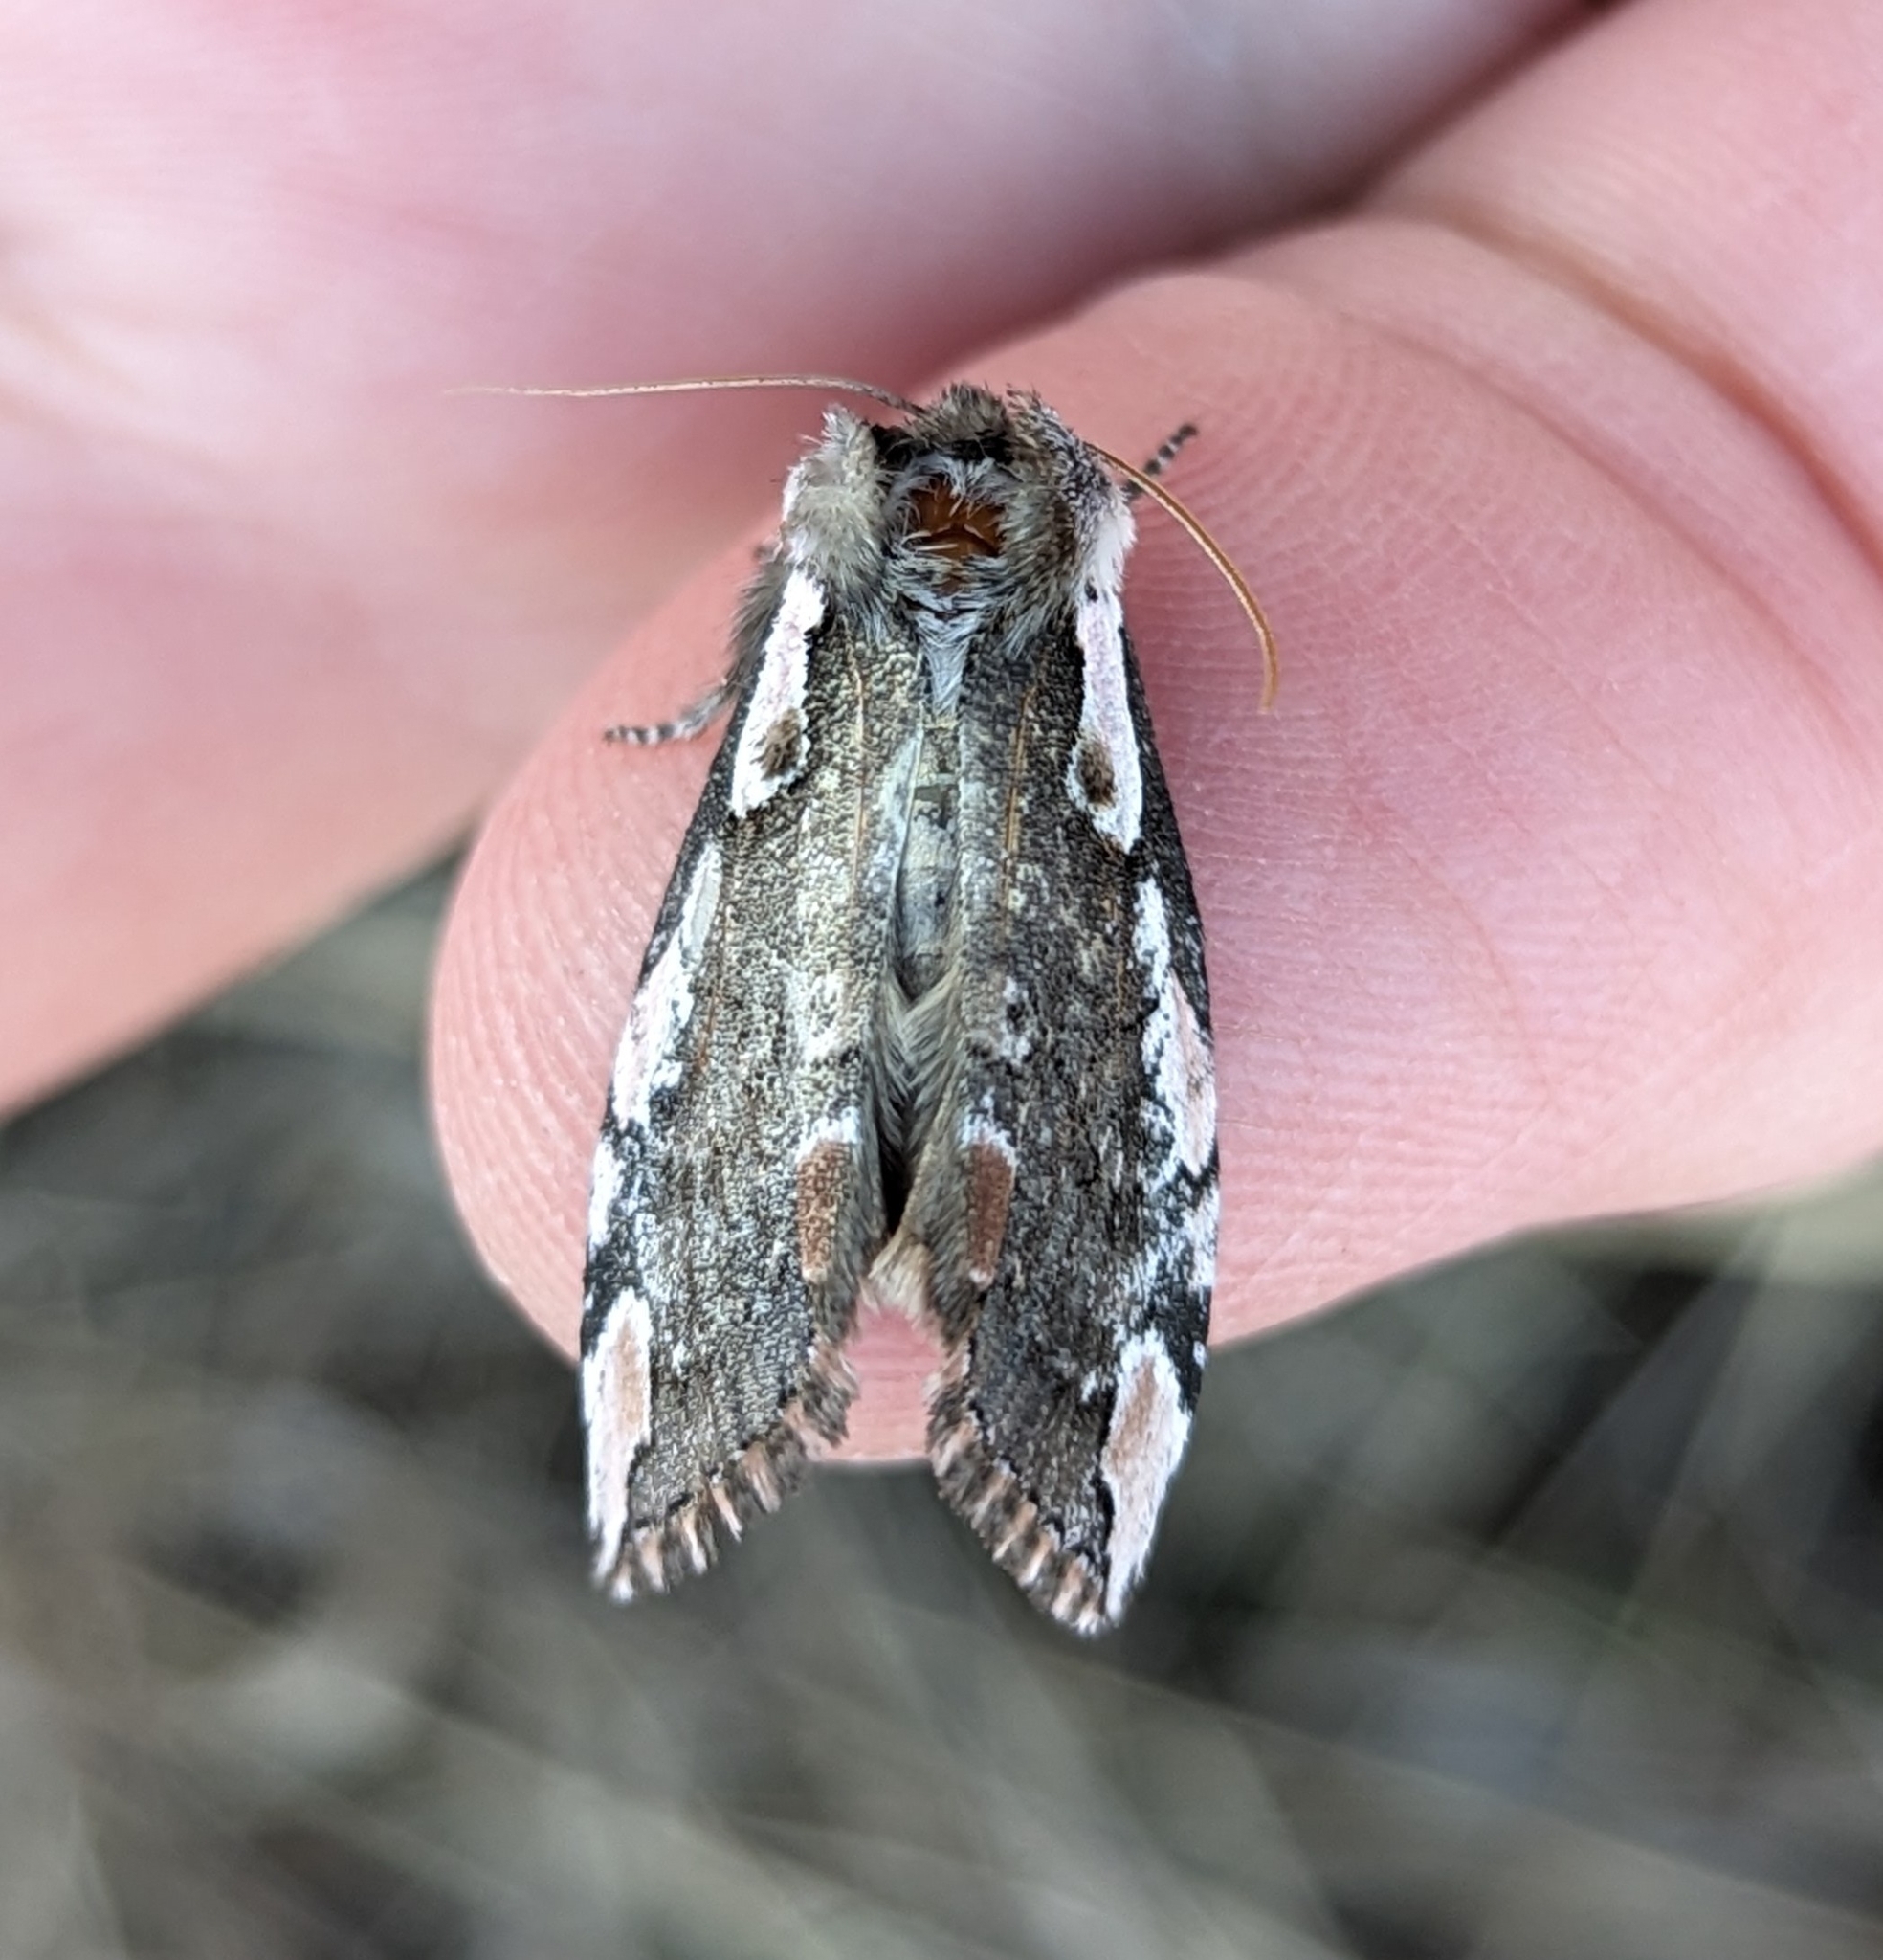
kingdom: Animalia
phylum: Arthropoda
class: Insecta
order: Lepidoptera
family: Drepanidae
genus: Euthyatira
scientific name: Euthyatira pudens
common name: Dogwood thyatirid moth
